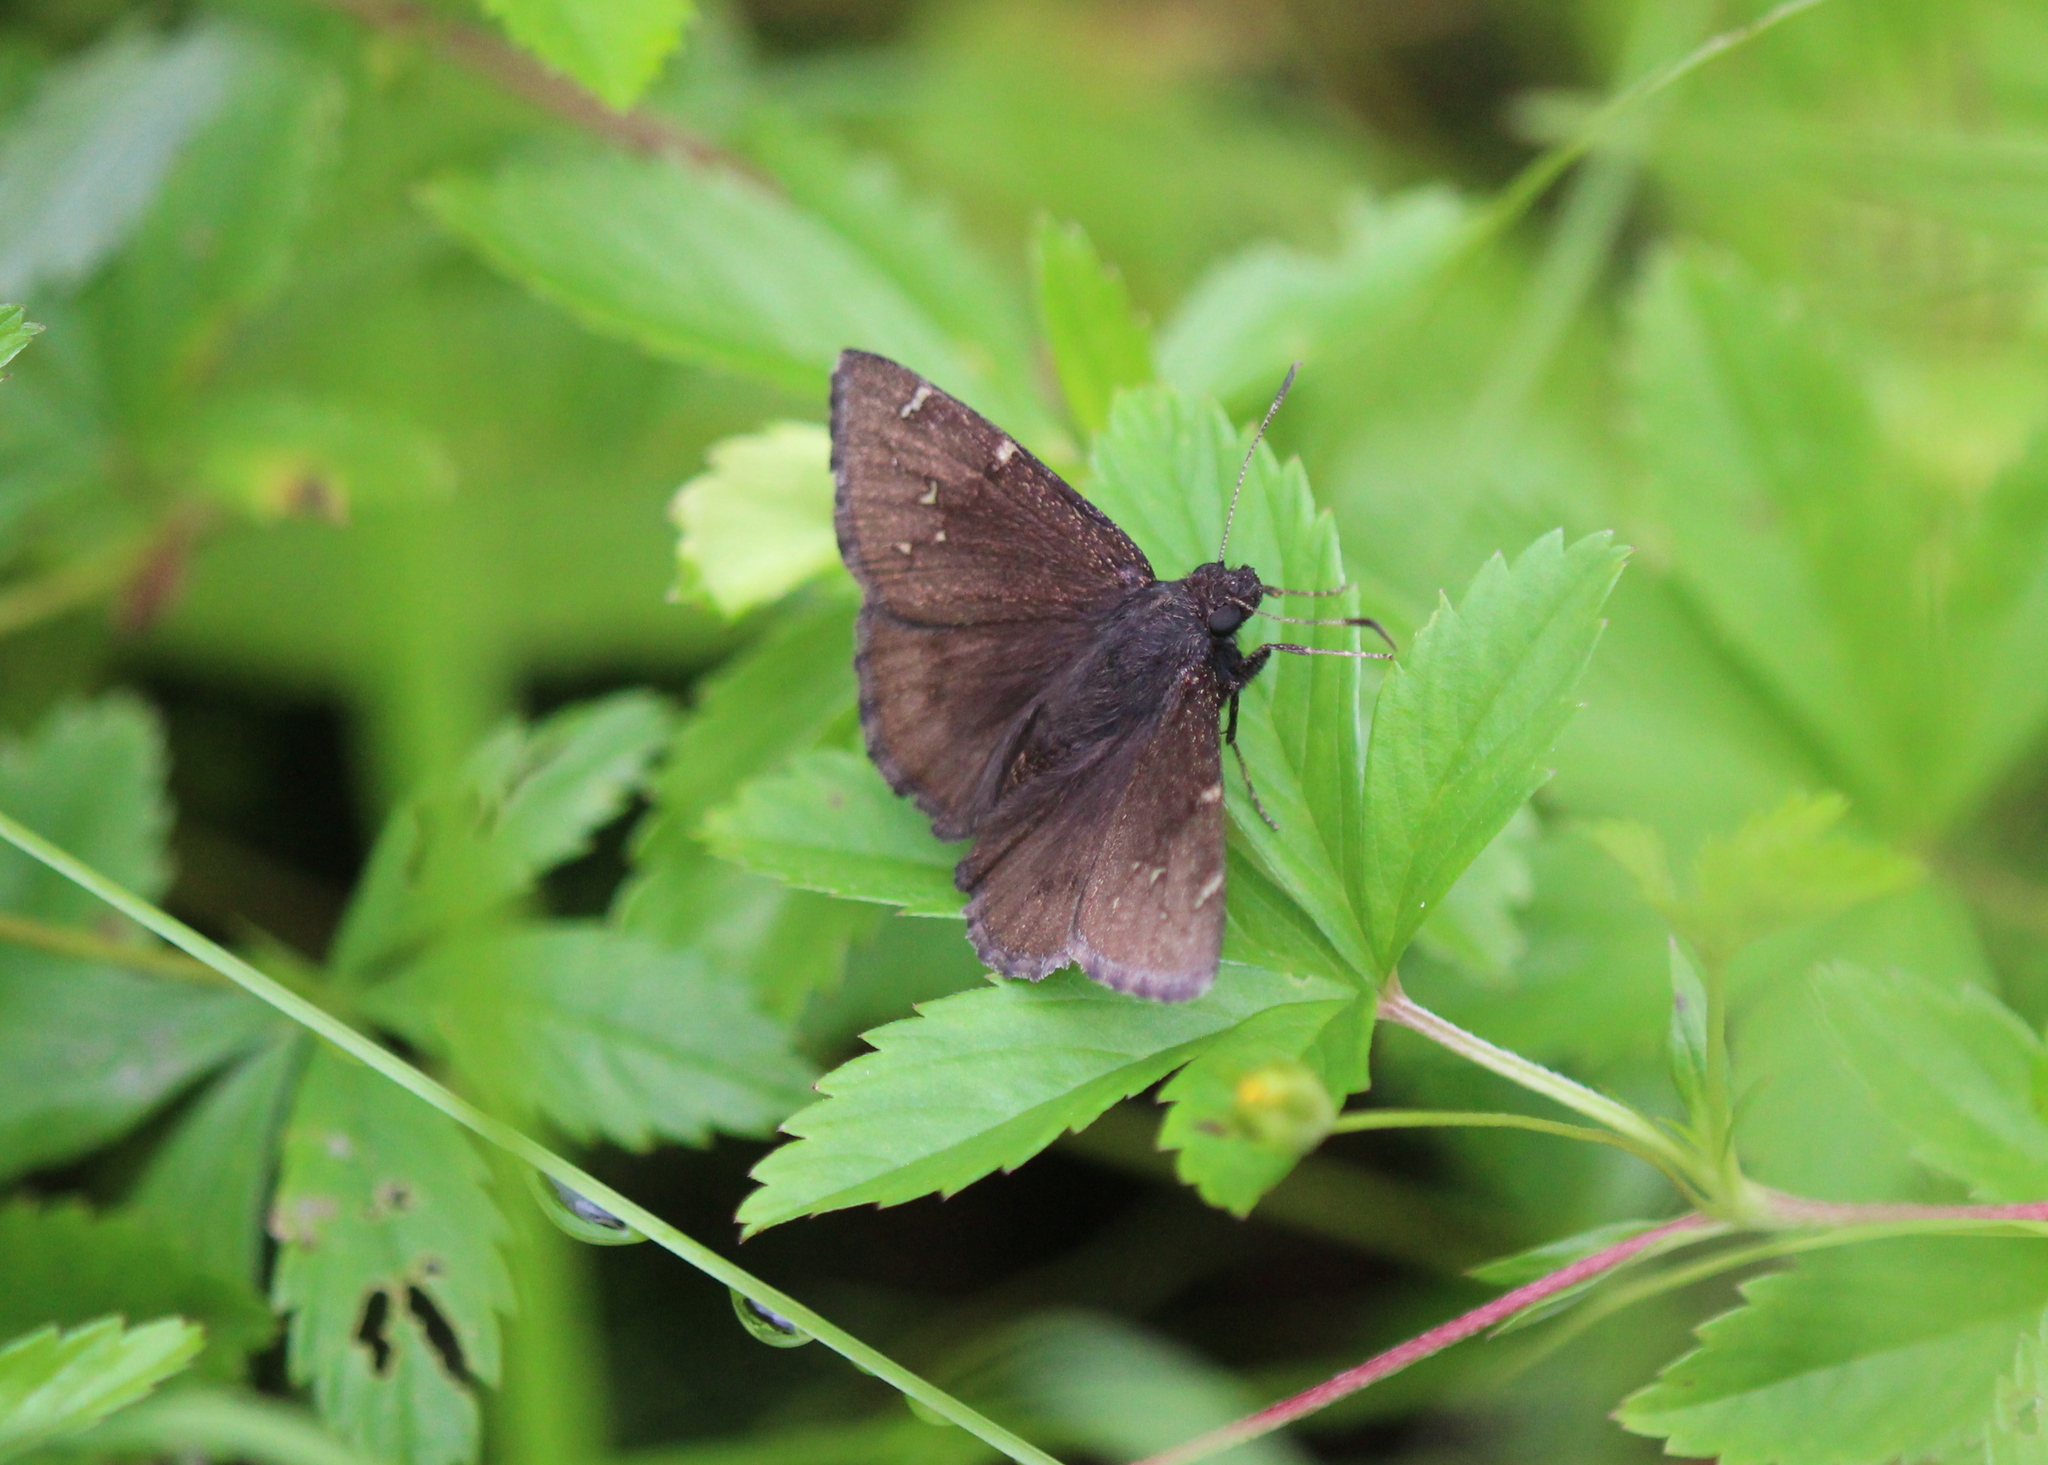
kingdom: Animalia
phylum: Arthropoda
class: Insecta
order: Lepidoptera
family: Hesperiidae
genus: Thorybes
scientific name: Thorybes pylades
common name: Northern cloudywing
